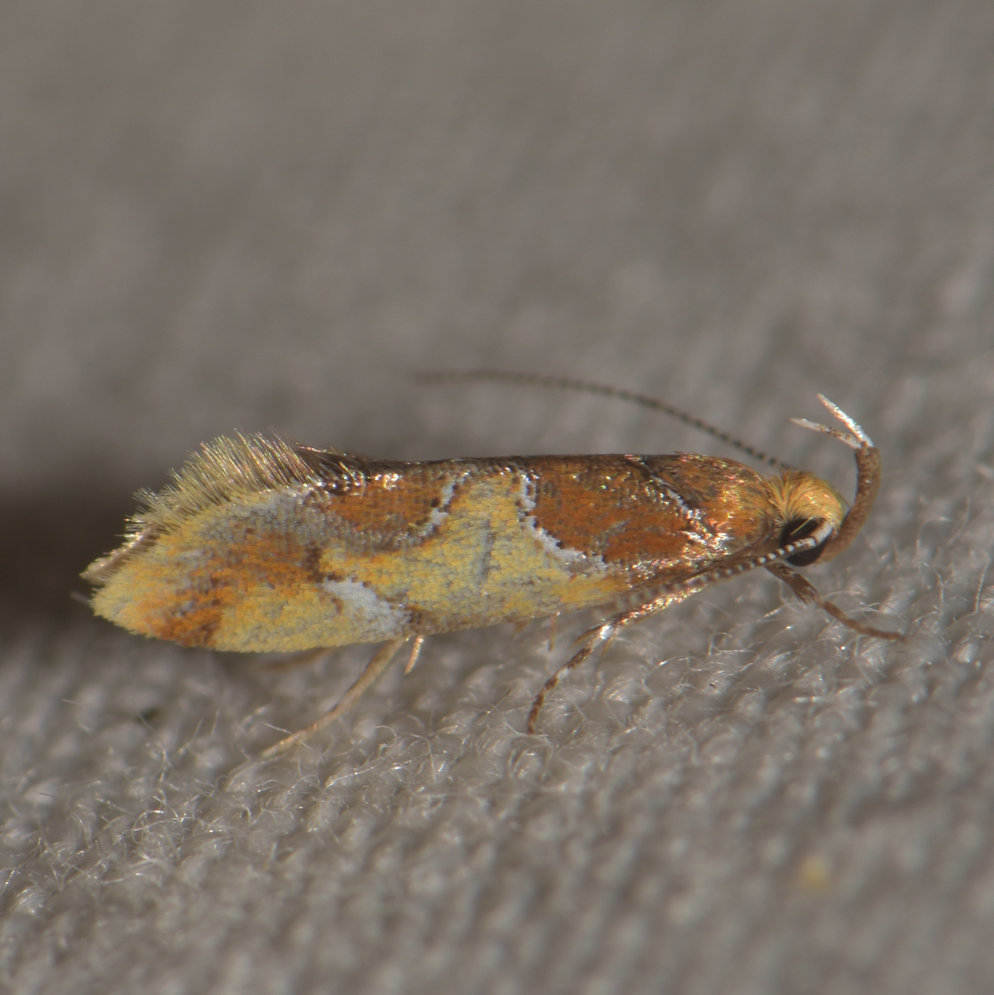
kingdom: Animalia
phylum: Arthropoda
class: Insecta
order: Lepidoptera
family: Oecophoridae
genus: Callima
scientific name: Callima argenticinctella
